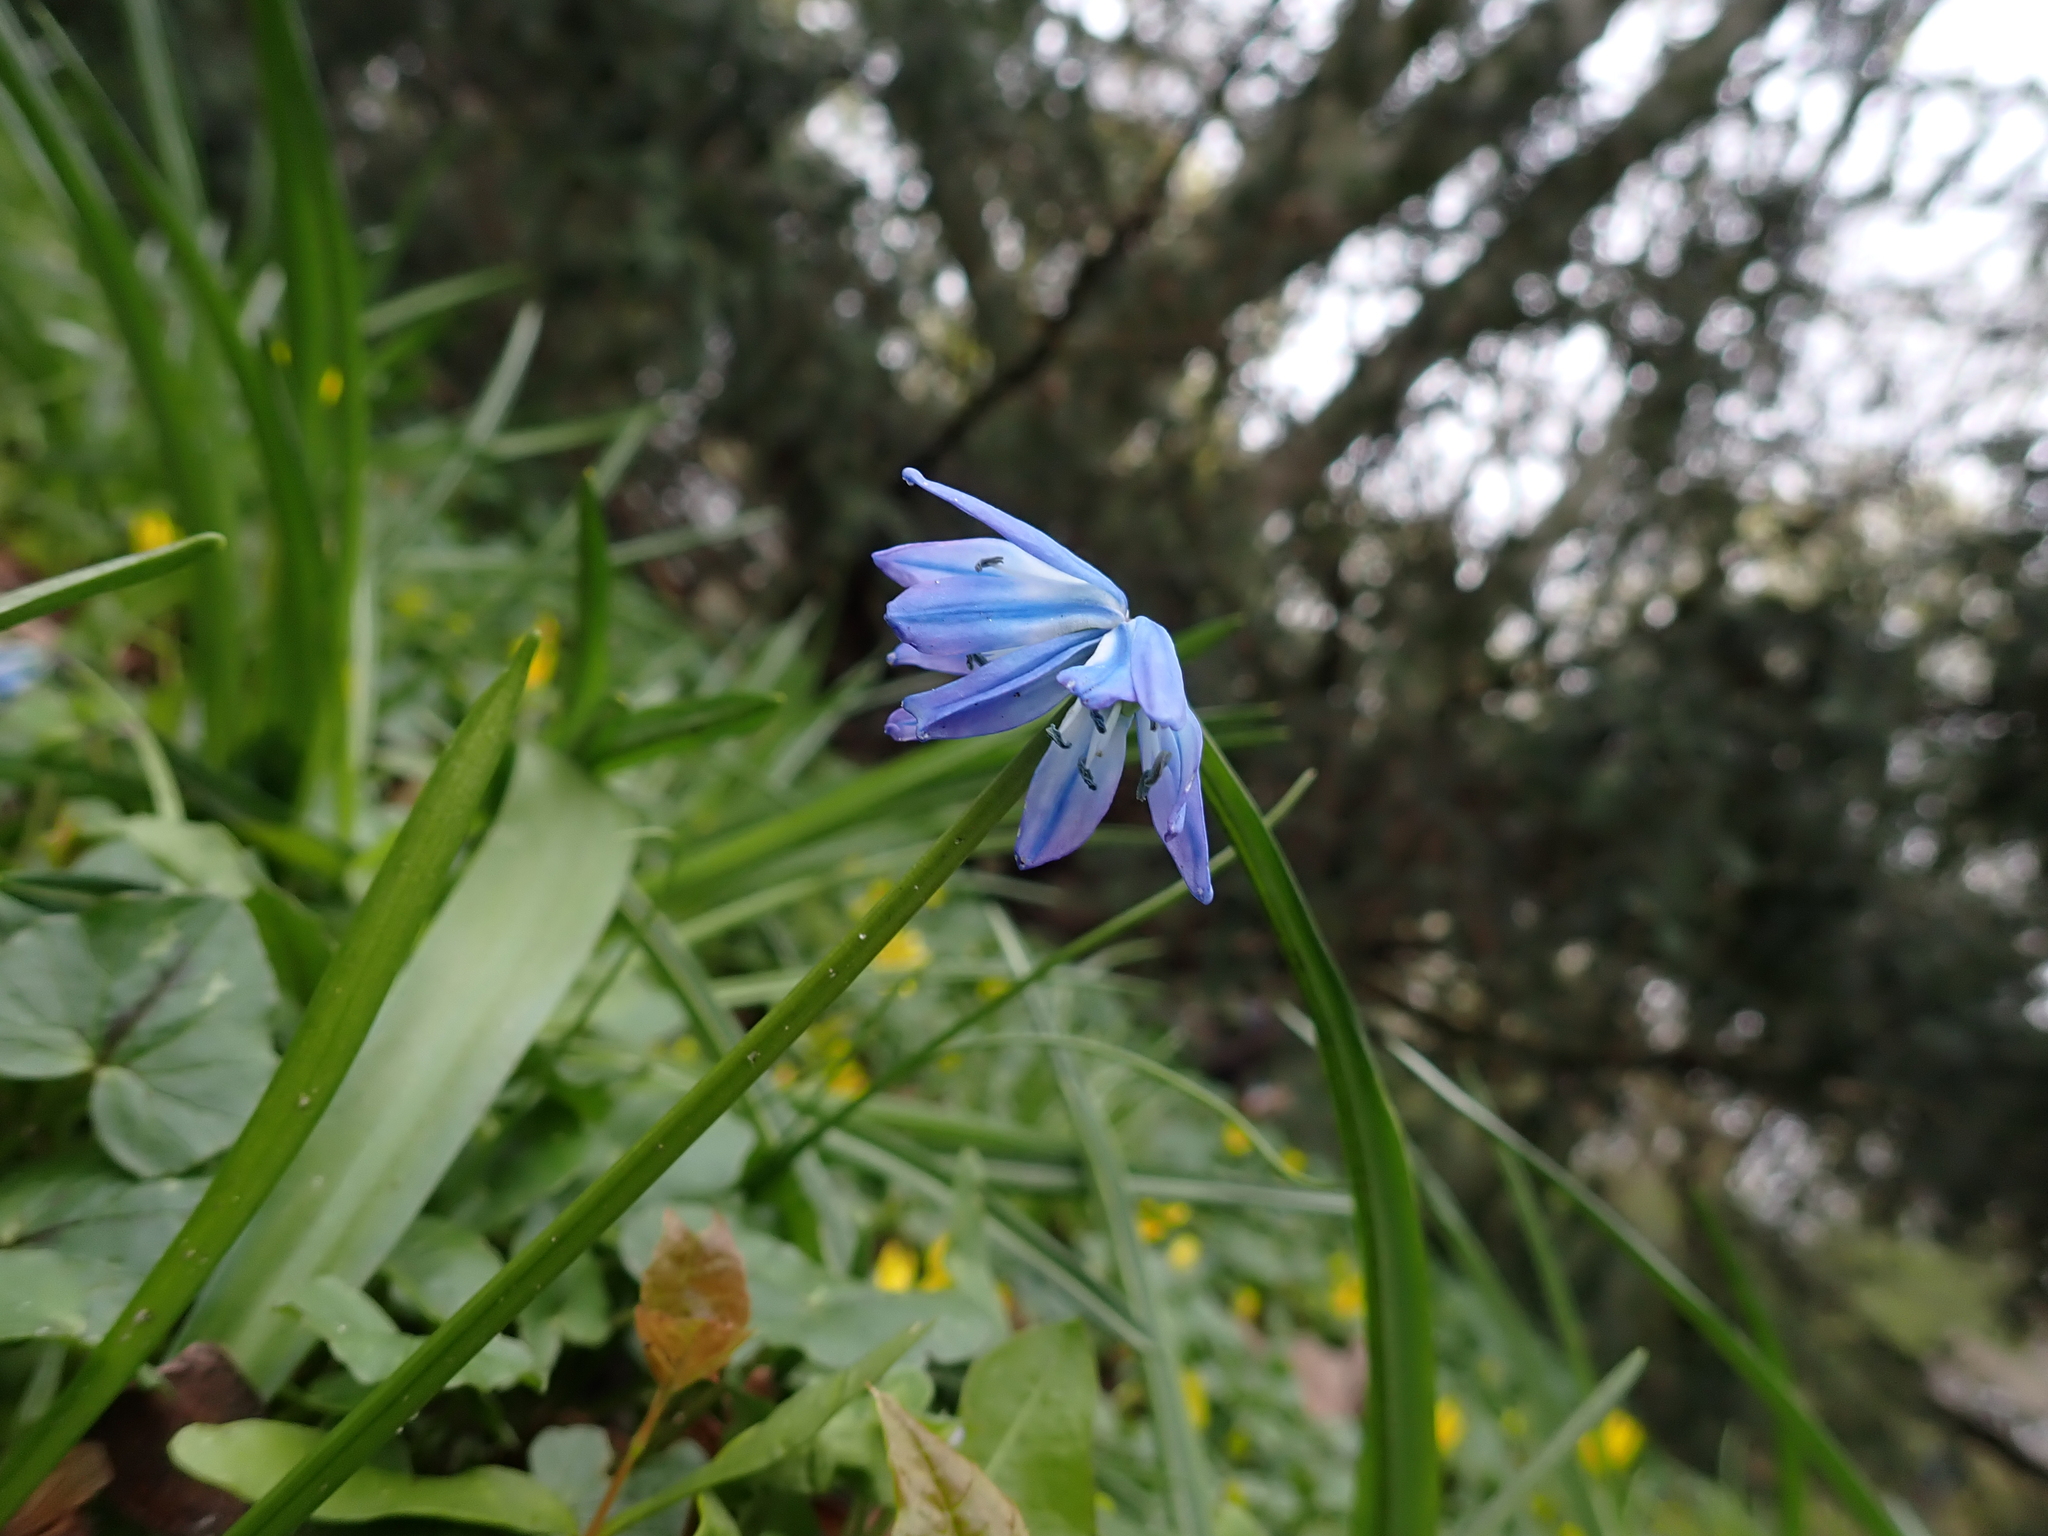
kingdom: Plantae
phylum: Tracheophyta
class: Liliopsida
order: Asparagales
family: Asparagaceae
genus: Scilla
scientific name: Scilla siberica
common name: Siberian squill
